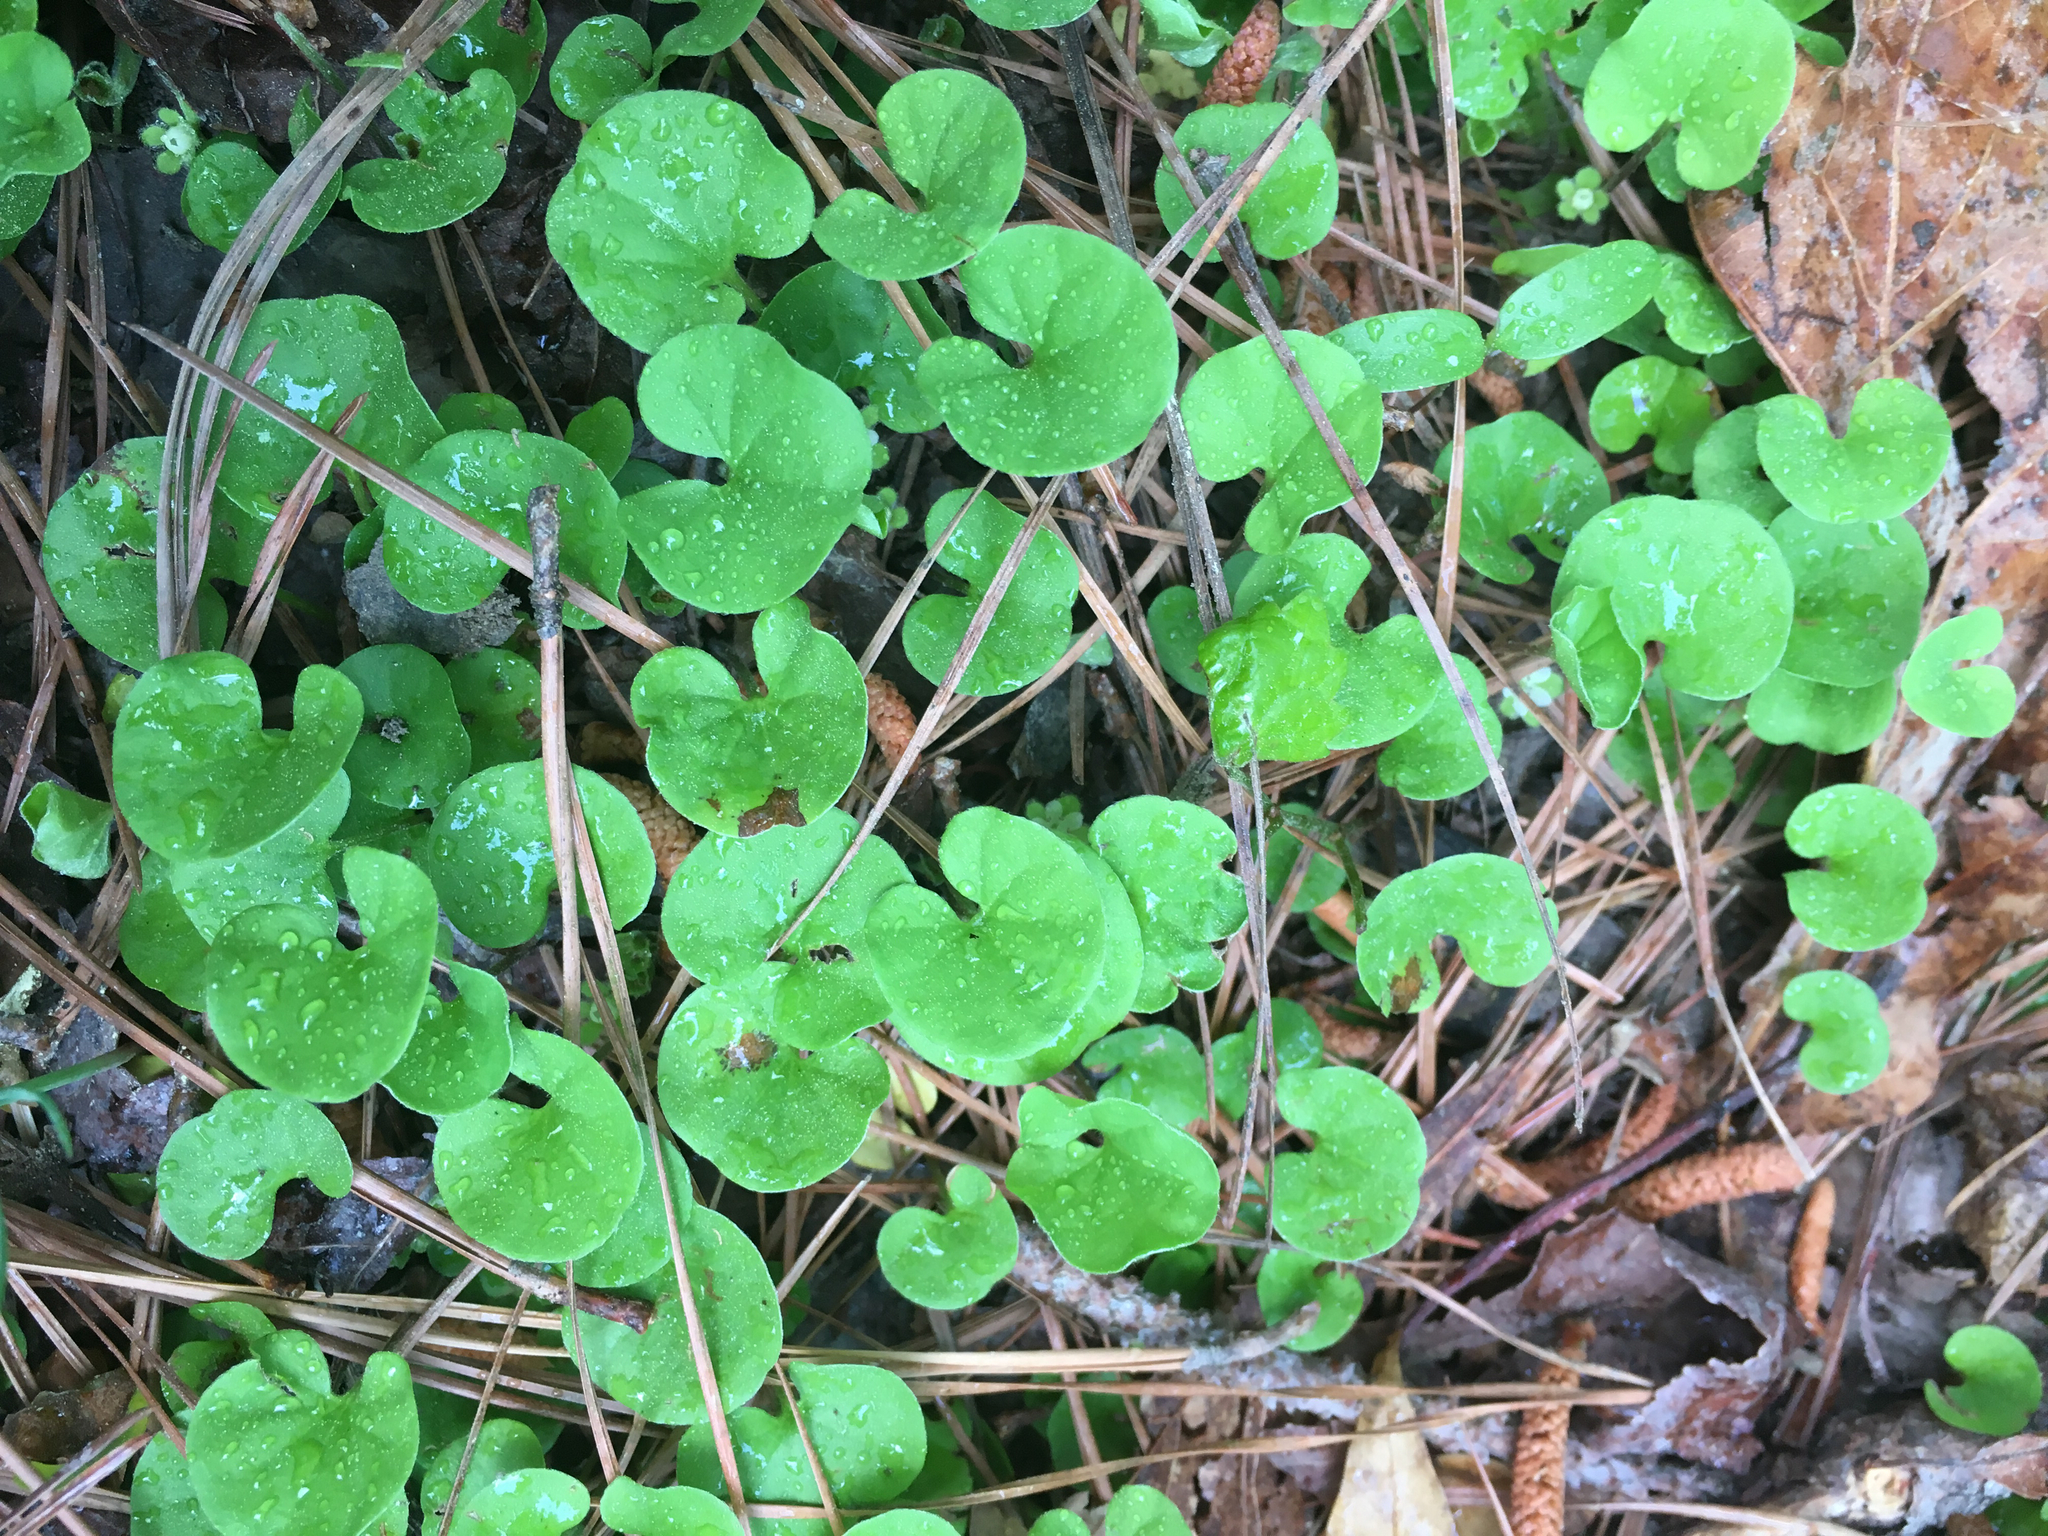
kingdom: Plantae
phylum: Tracheophyta
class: Magnoliopsida
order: Solanales
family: Convolvulaceae
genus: Dichondra
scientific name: Dichondra carolinensis
